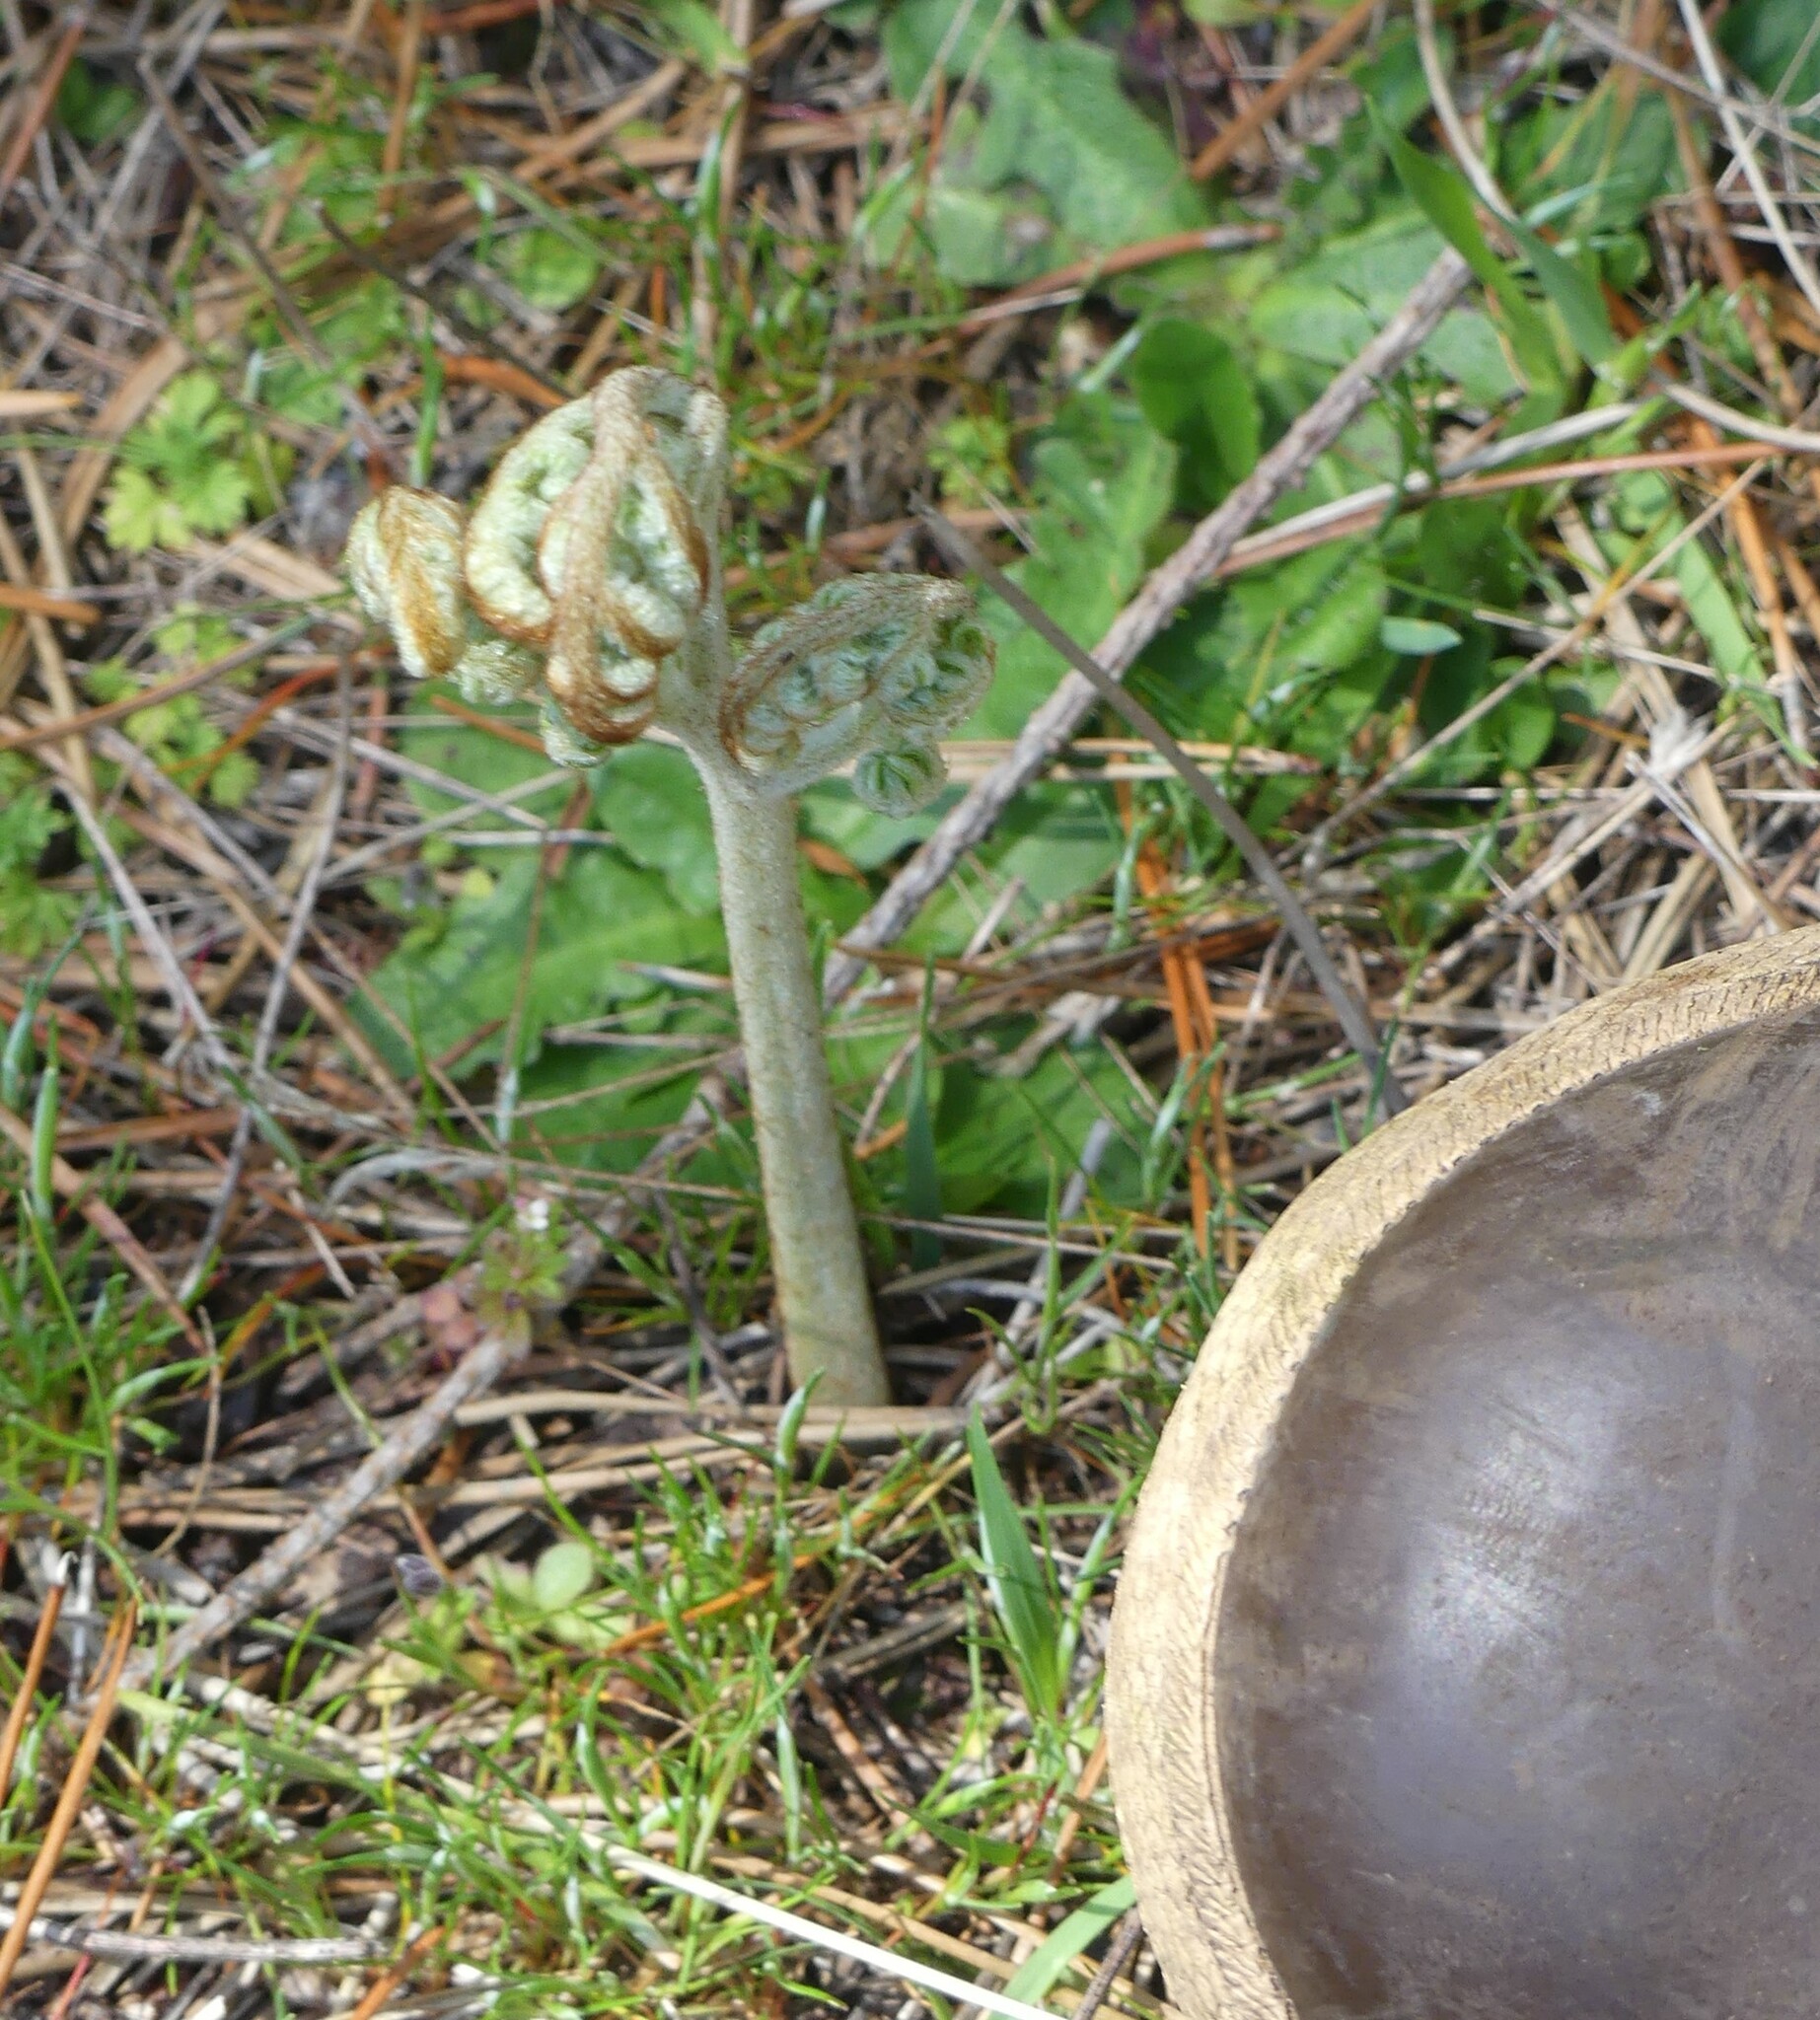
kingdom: Plantae
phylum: Tracheophyta
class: Polypodiopsida
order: Polypodiales
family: Dennstaedtiaceae
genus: Pteridium
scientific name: Pteridium aquilinum
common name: Bracken
